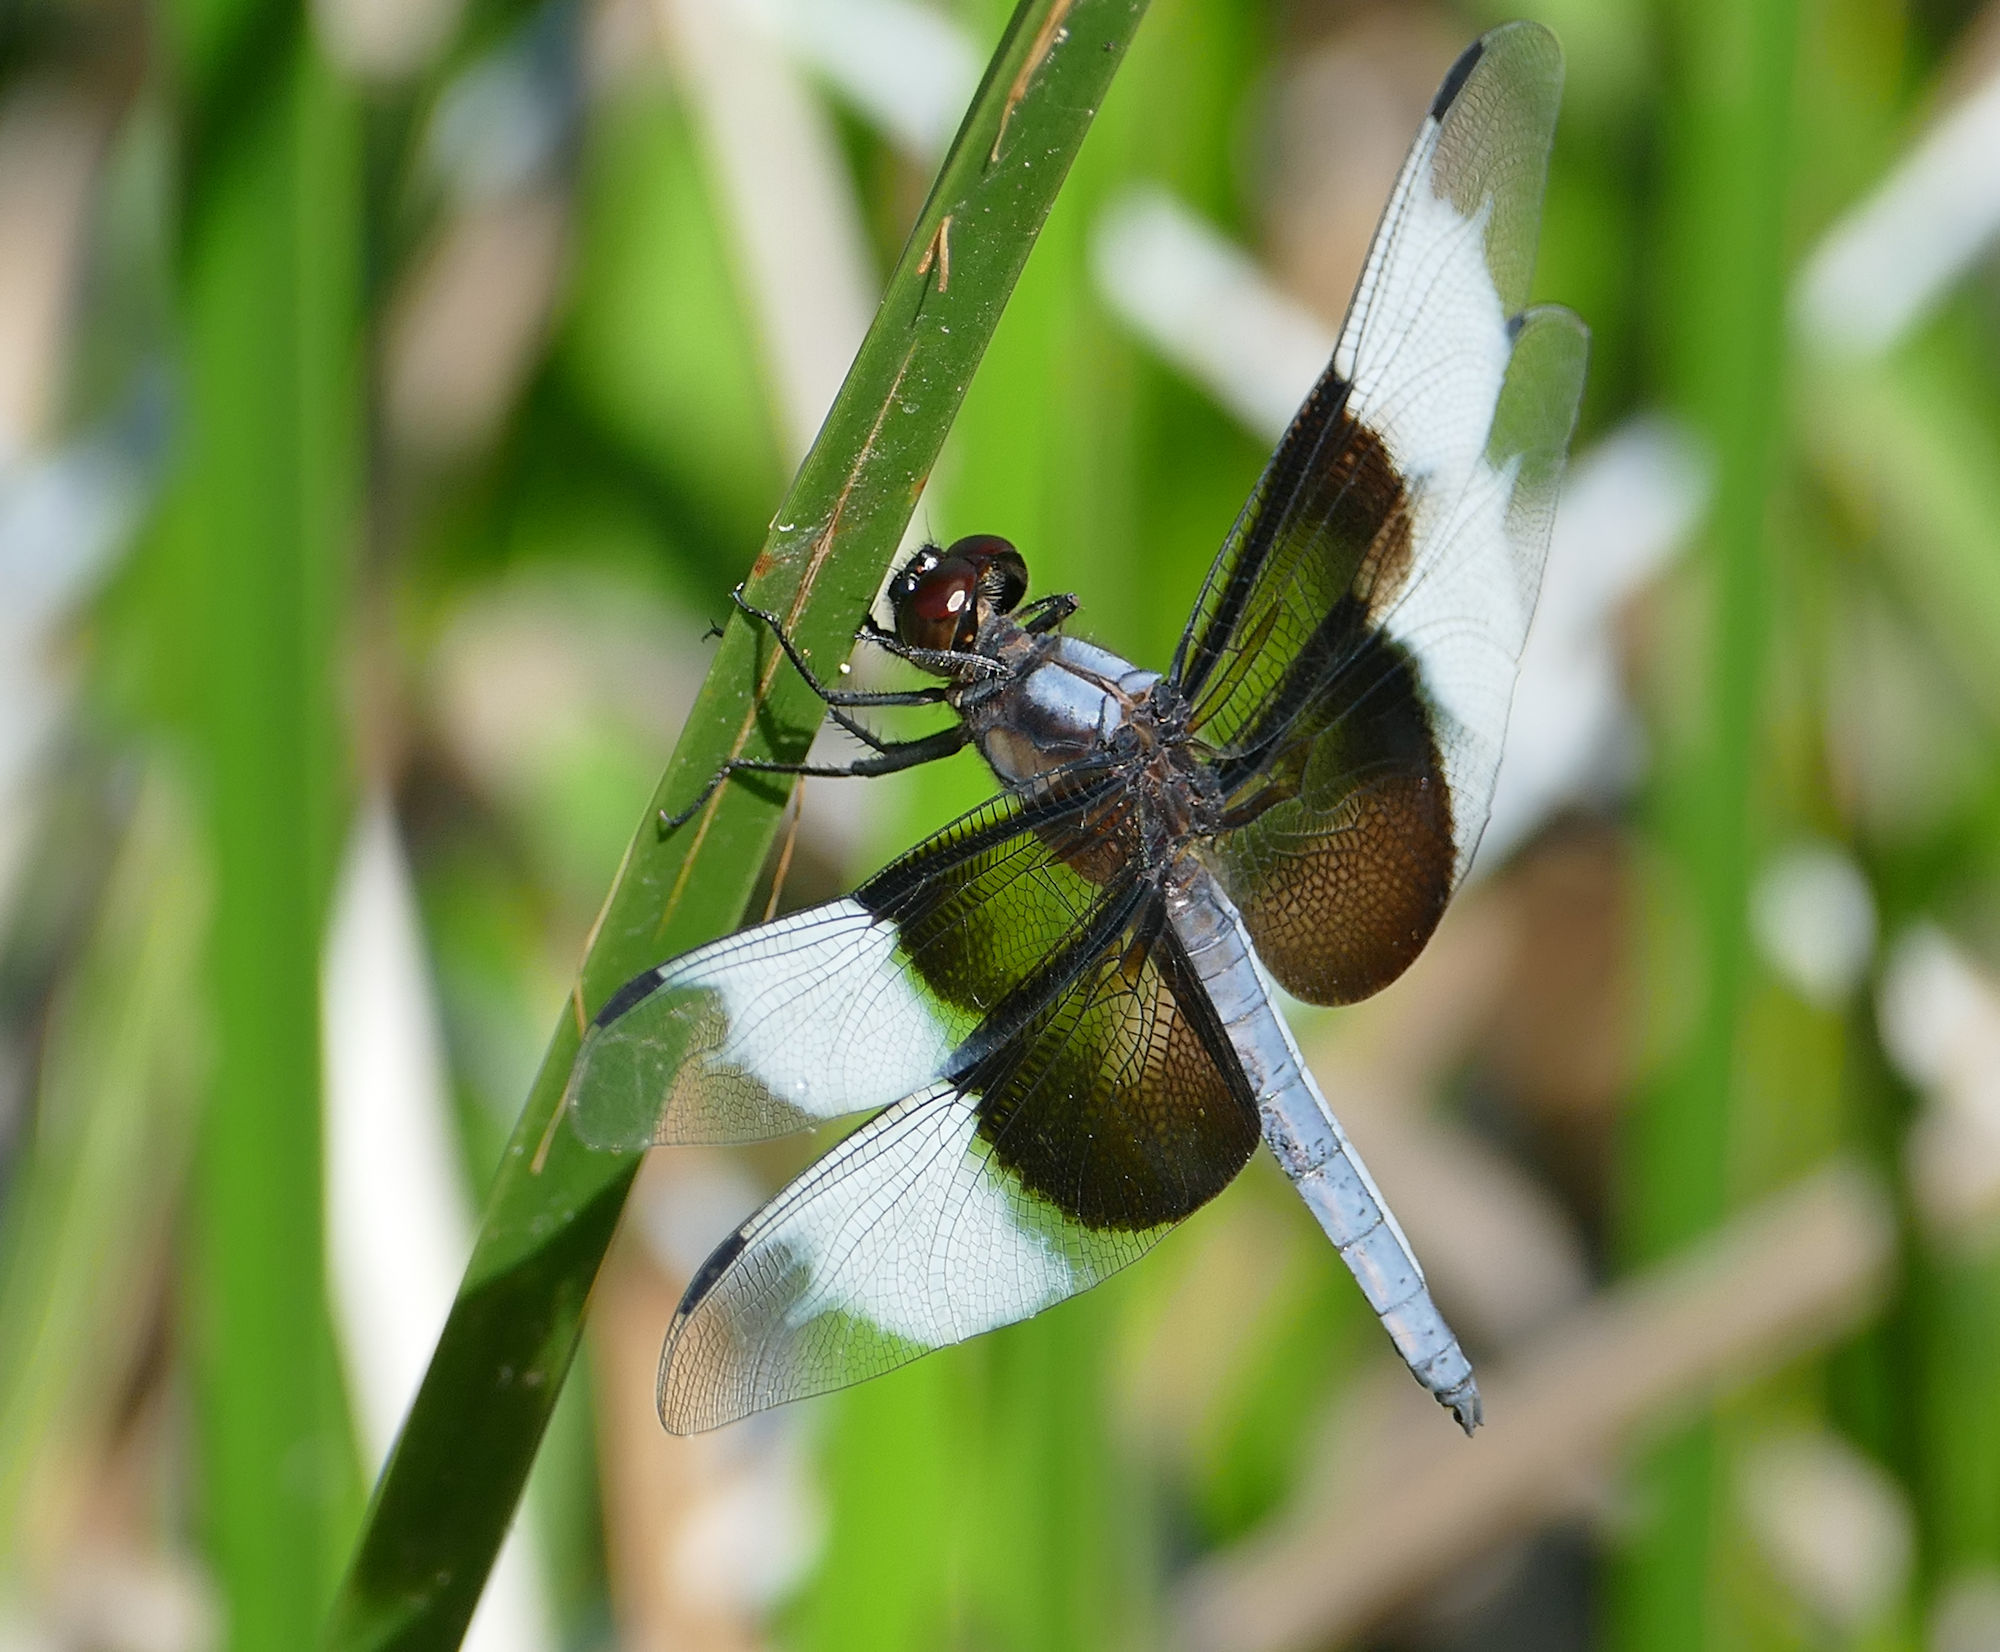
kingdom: Animalia
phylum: Arthropoda
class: Insecta
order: Odonata
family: Libellulidae
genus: Libellula
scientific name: Libellula luctuosa
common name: Widow skimmer
